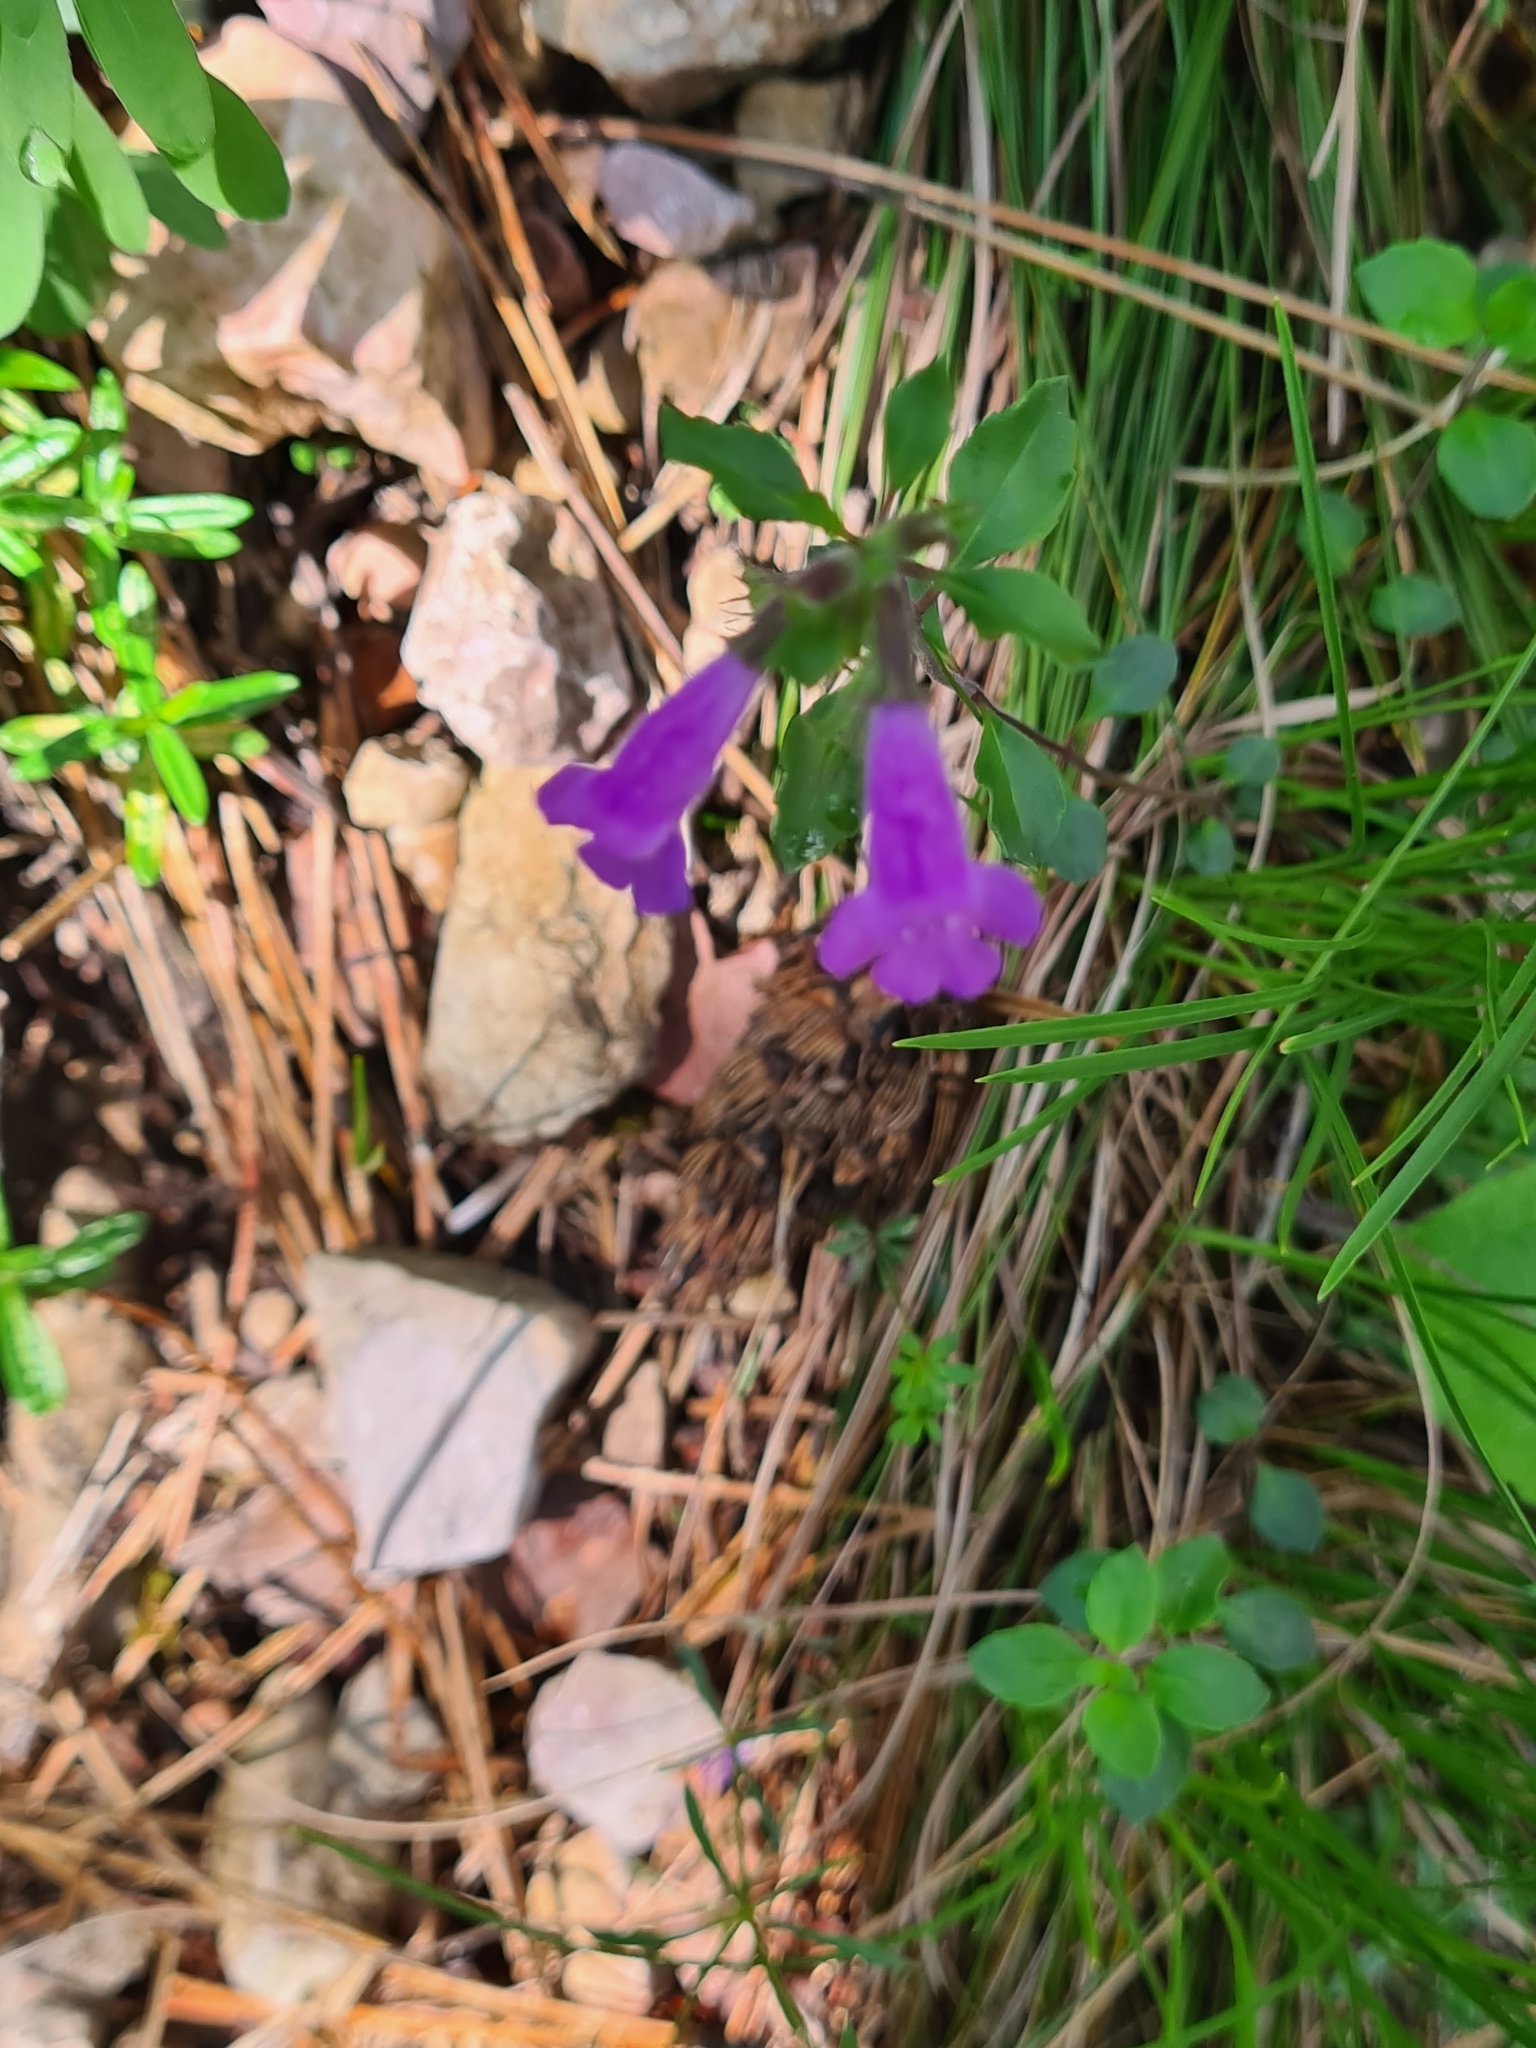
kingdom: Plantae
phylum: Tracheophyta
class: Magnoliopsida
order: Lamiales
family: Lamiaceae
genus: Clinopodium
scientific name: Clinopodium alpinum
